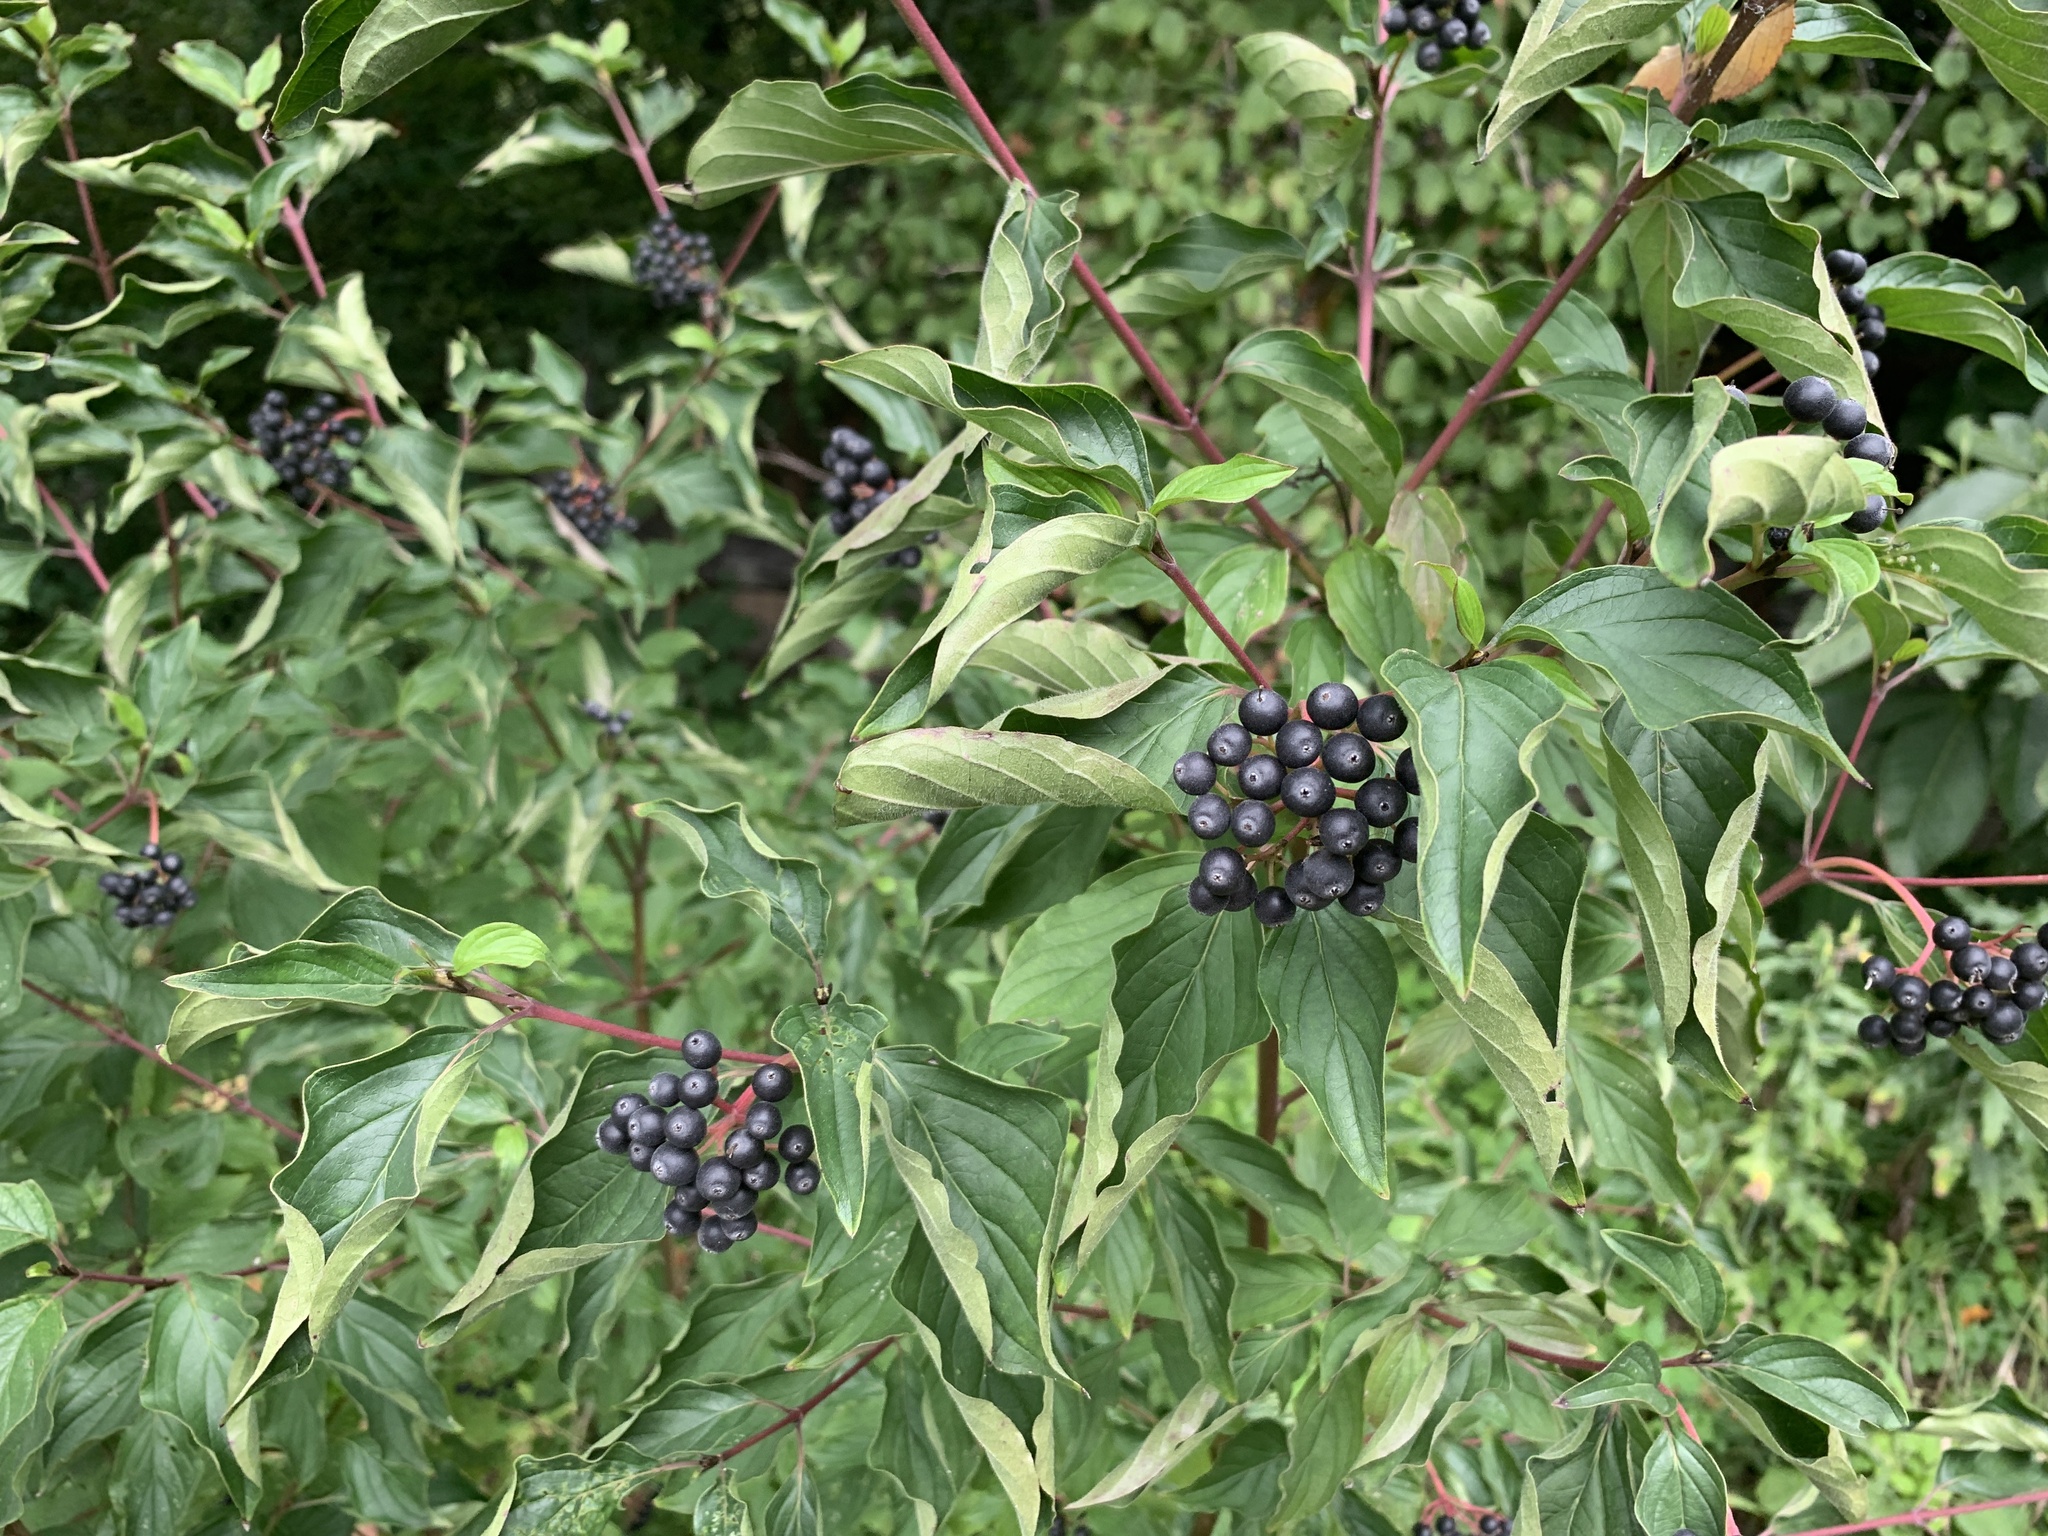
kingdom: Plantae
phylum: Tracheophyta
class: Magnoliopsida
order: Cornales
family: Cornaceae
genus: Cornus
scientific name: Cornus sanguinea
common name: Dogwood
